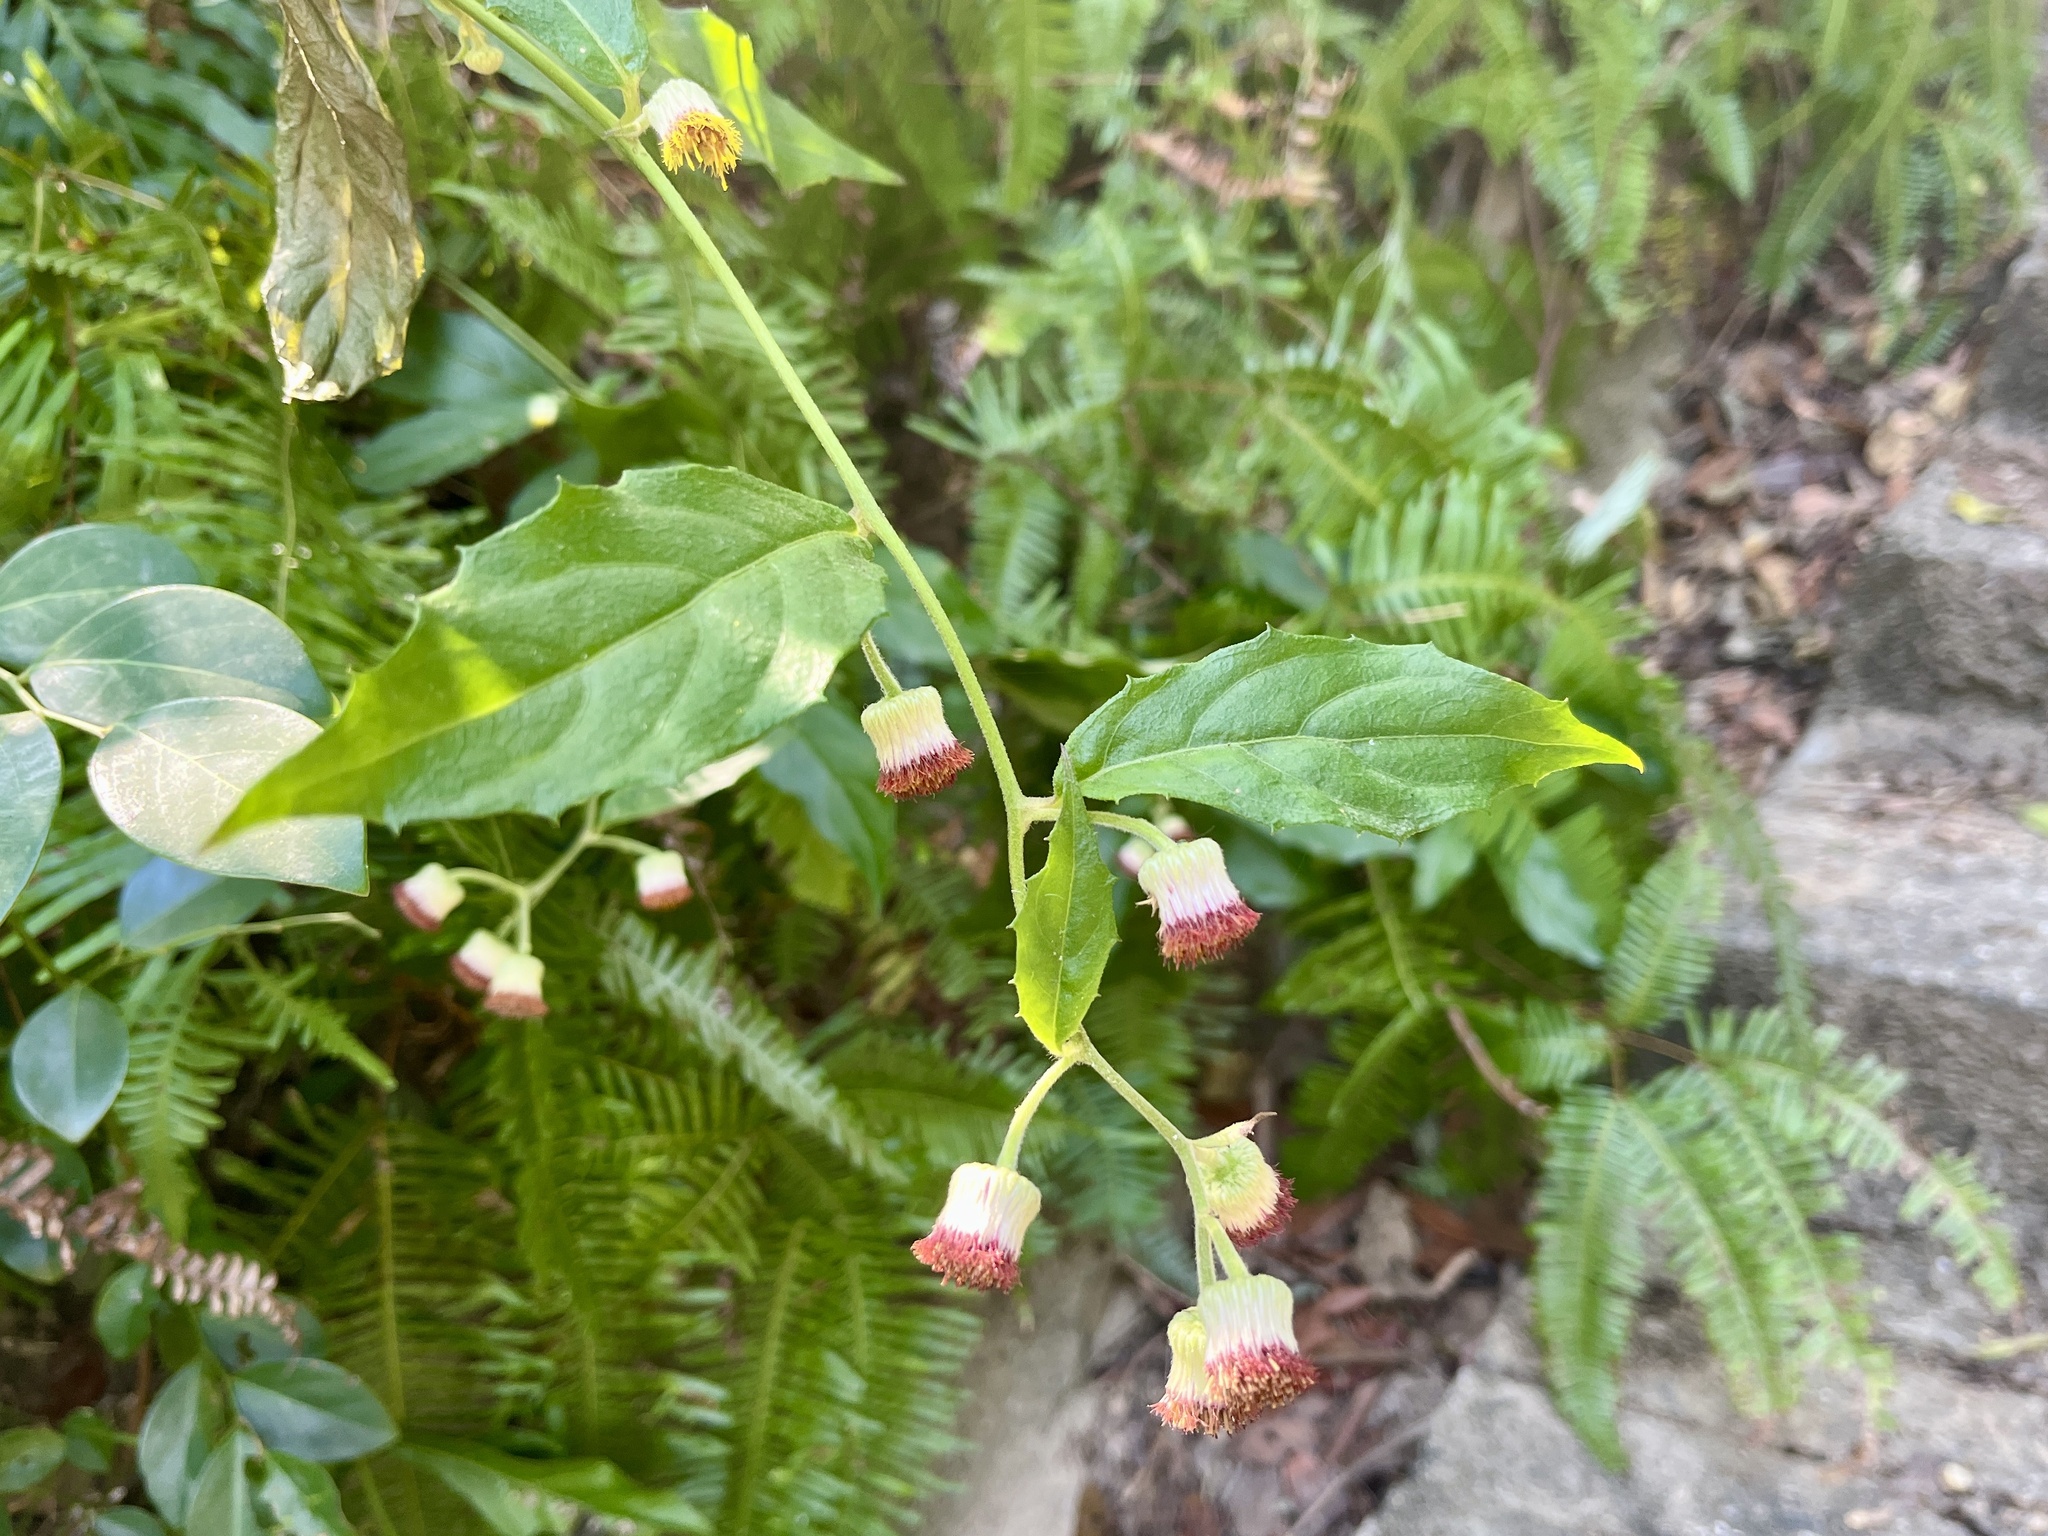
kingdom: Plantae
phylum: Tracheophyta
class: Magnoliopsida
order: Asterales
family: Asteraceae
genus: Blumea
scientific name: Blumea megacephala
